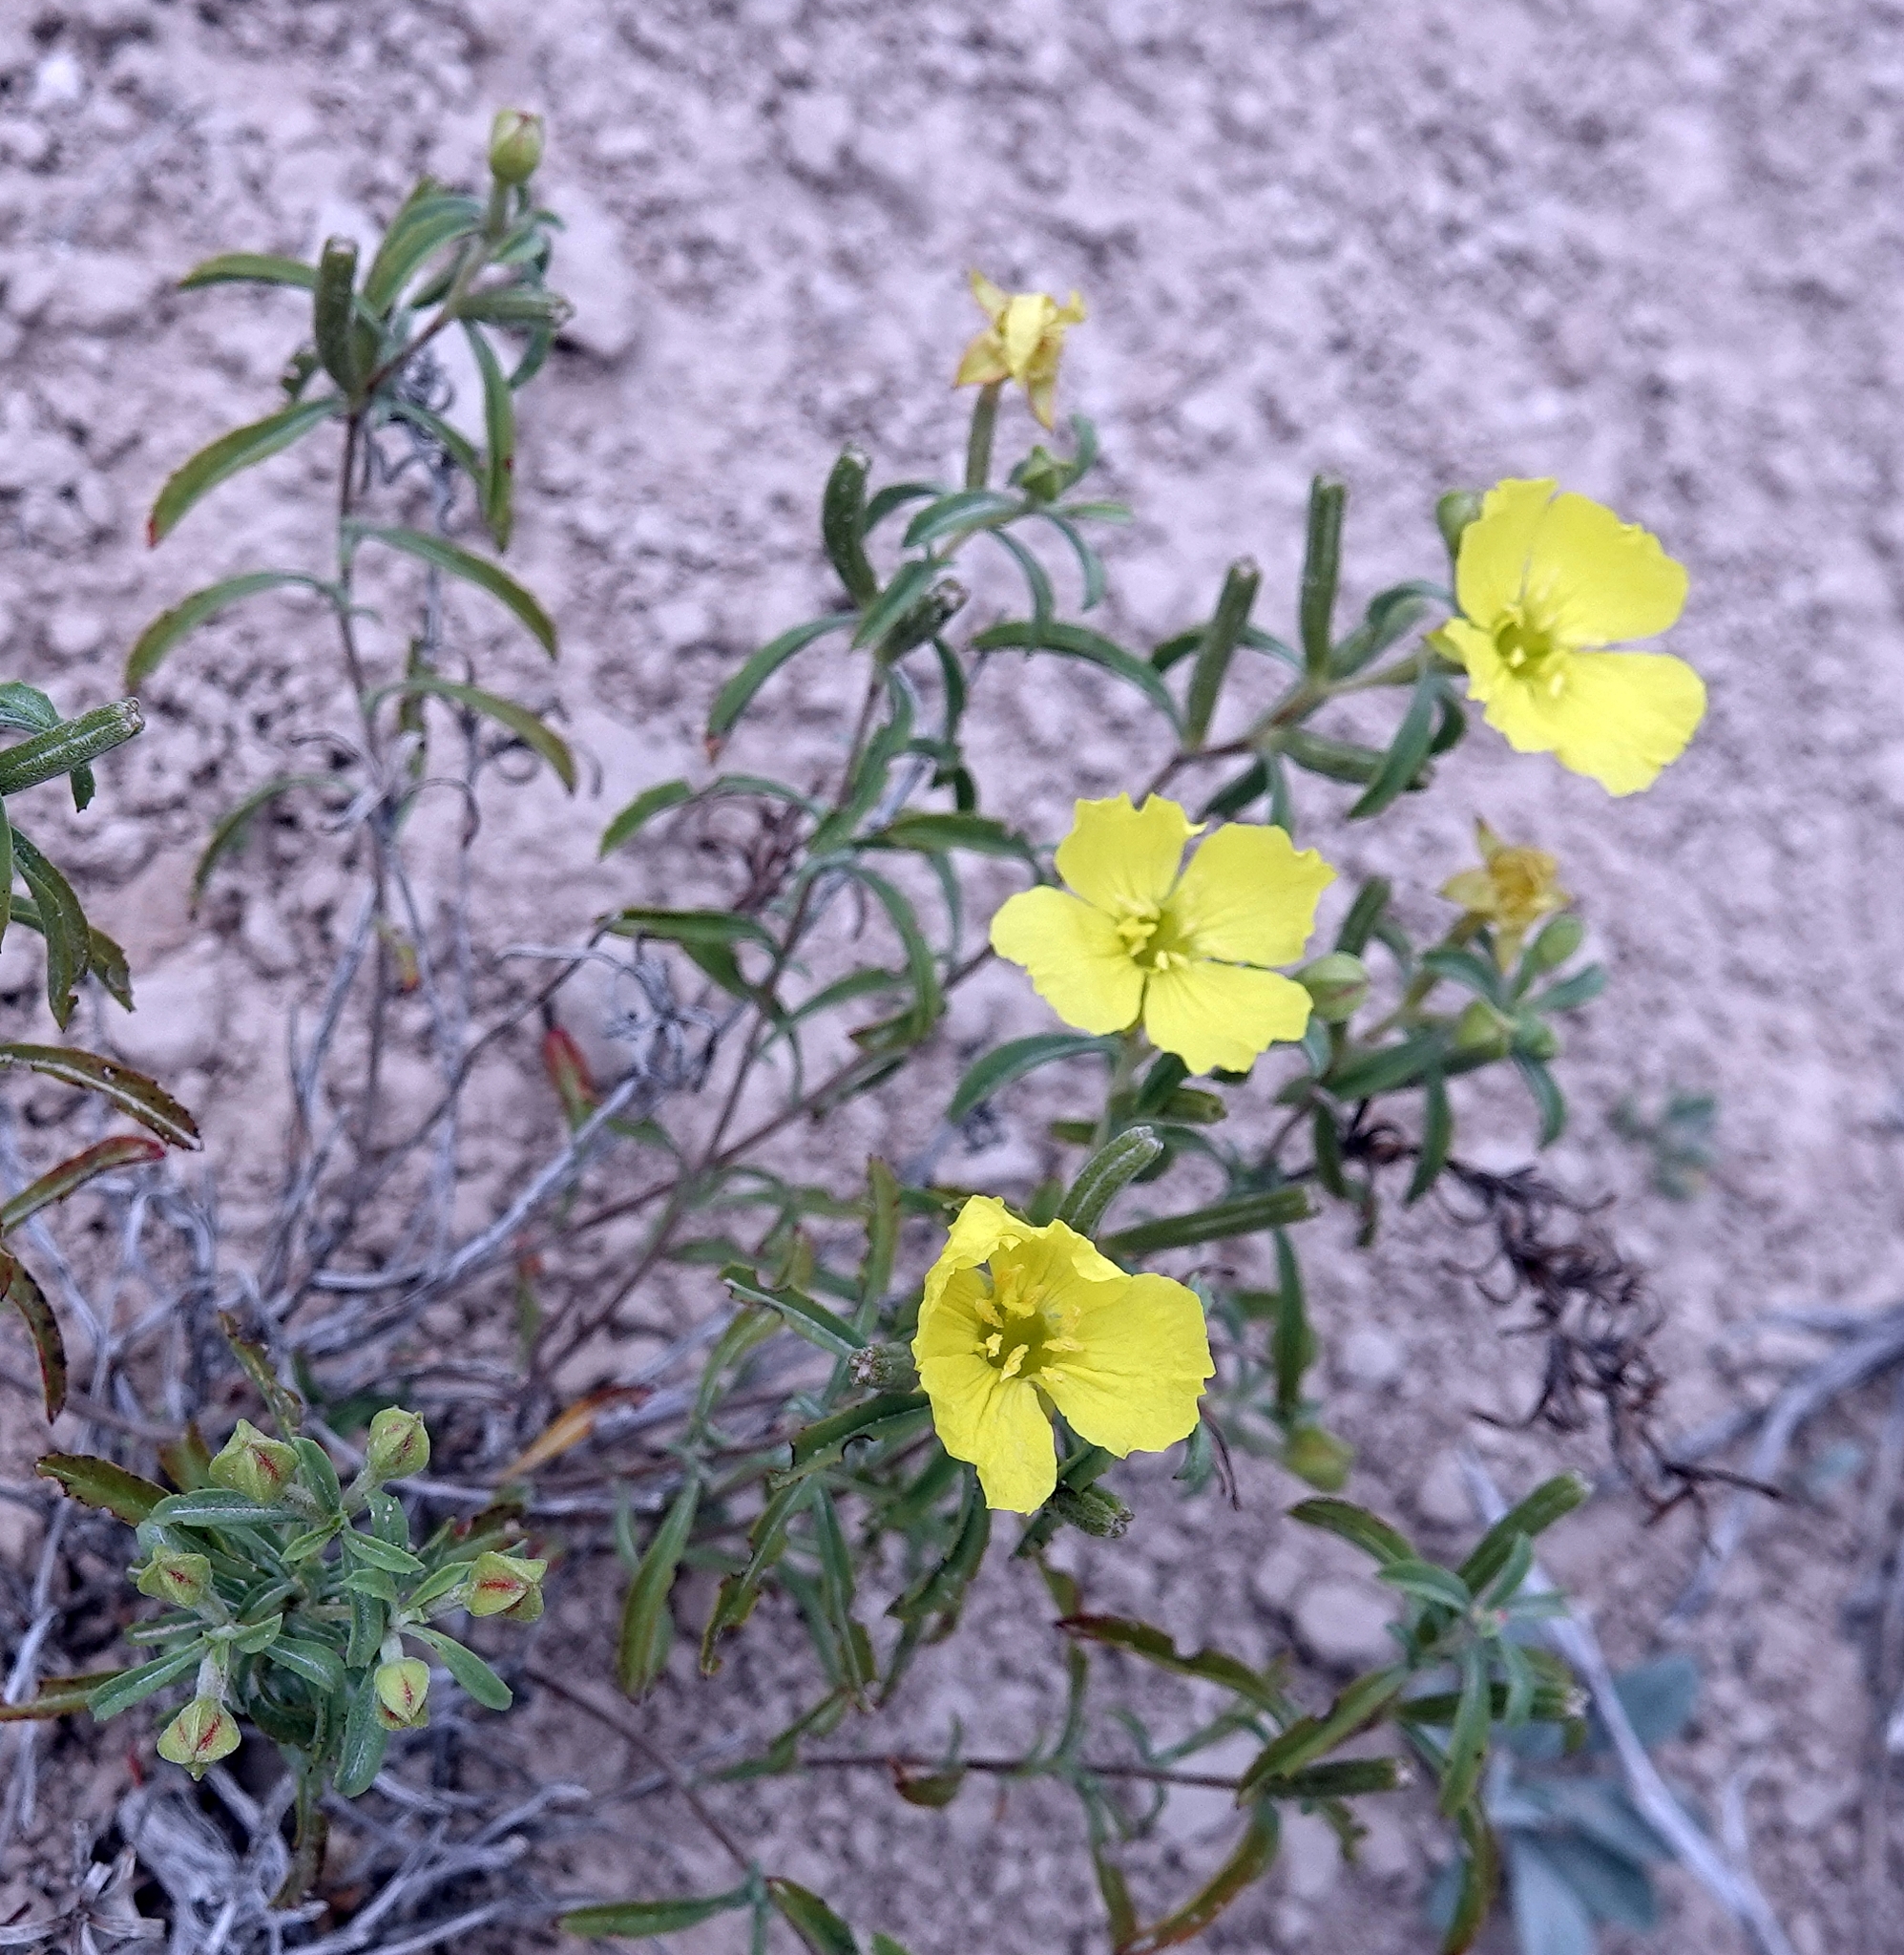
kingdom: Plantae
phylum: Tracheophyta
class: Magnoliopsida
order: Myrtales
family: Onagraceae
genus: Oenothera
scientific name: Oenothera serrulata
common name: Half-shrub calylophus
